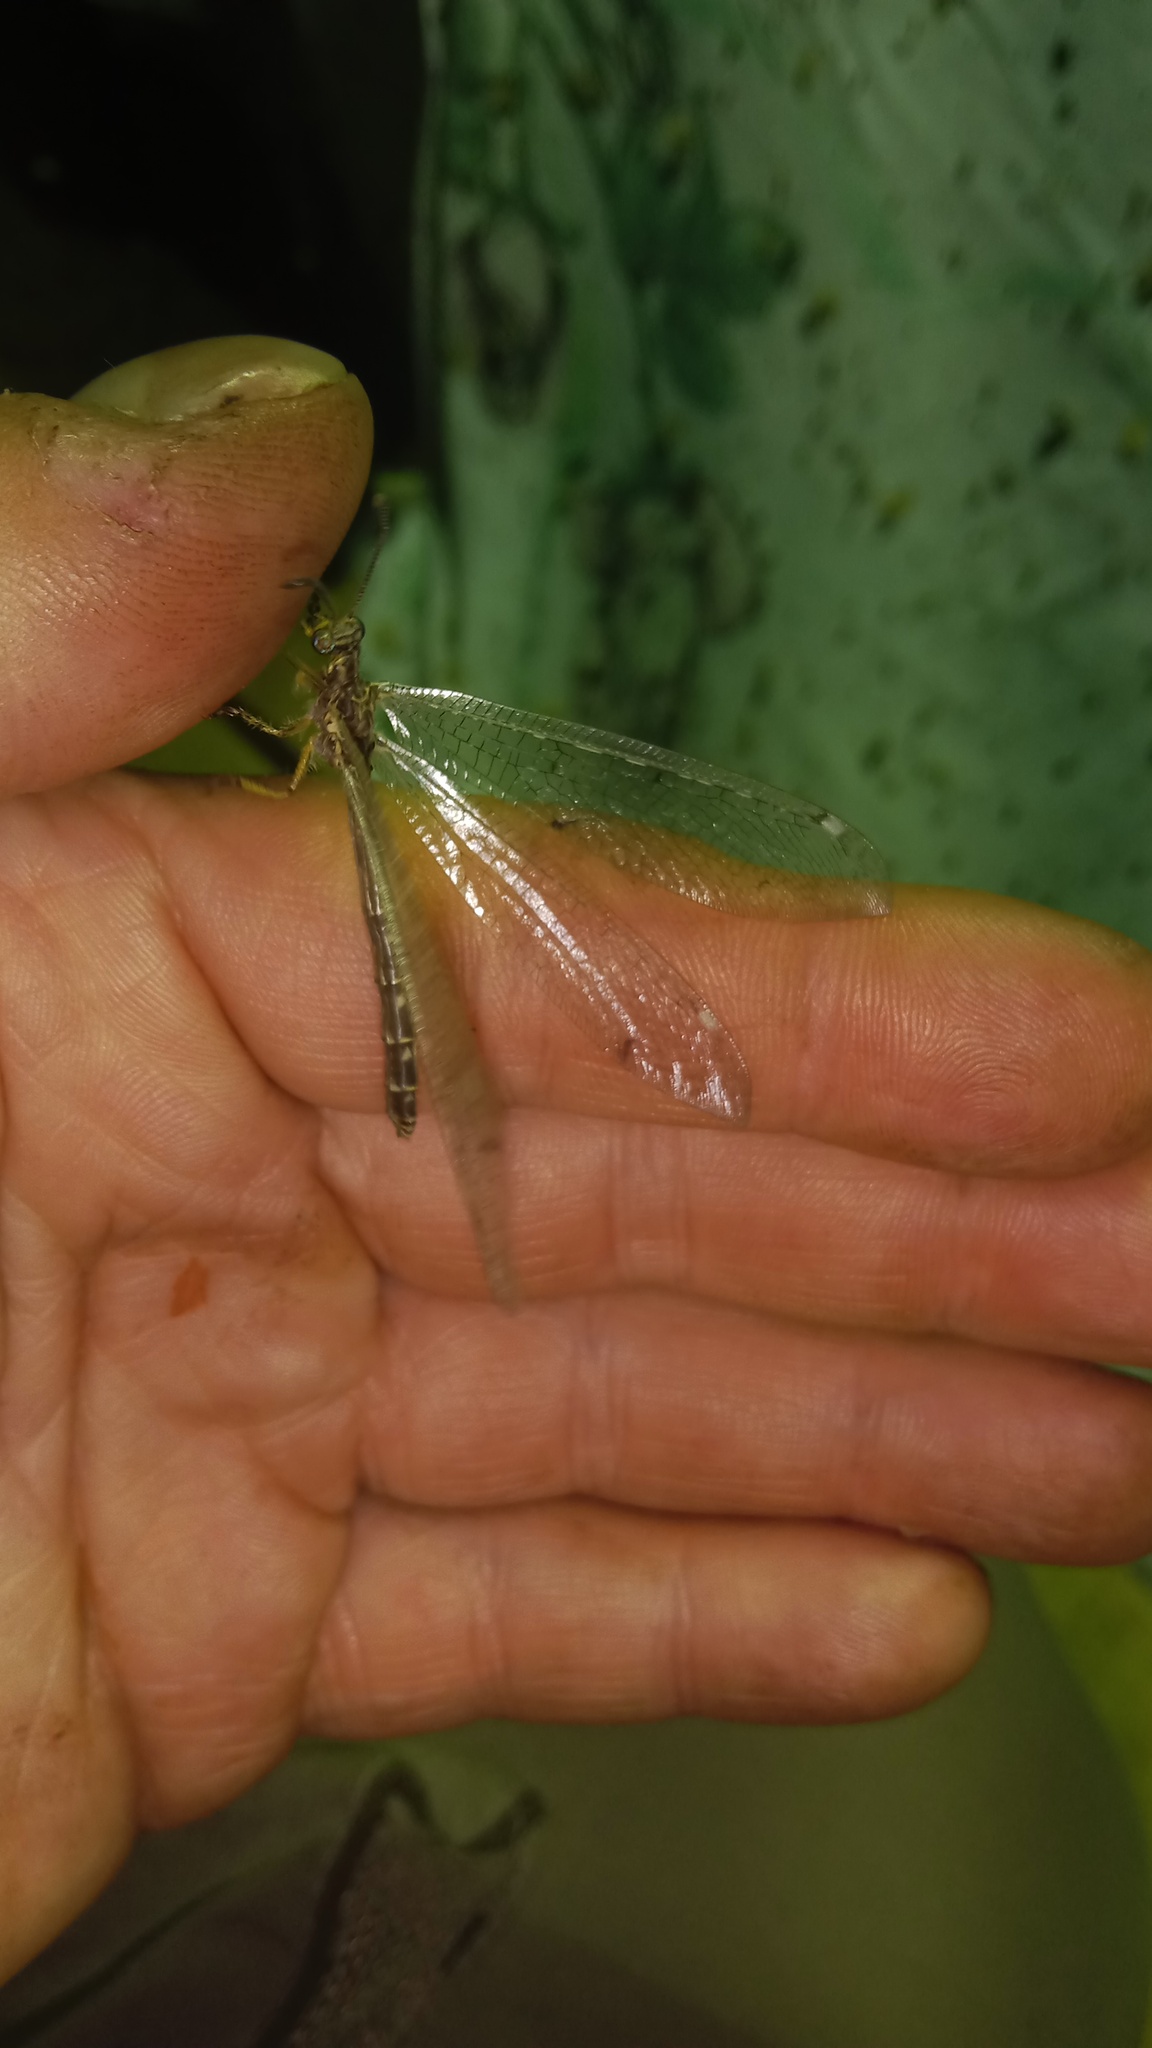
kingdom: Animalia
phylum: Arthropoda
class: Insecta
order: Neuroptera
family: Myrmeleontidae
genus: Distoleon
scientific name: Distoleon tetragrammicus
